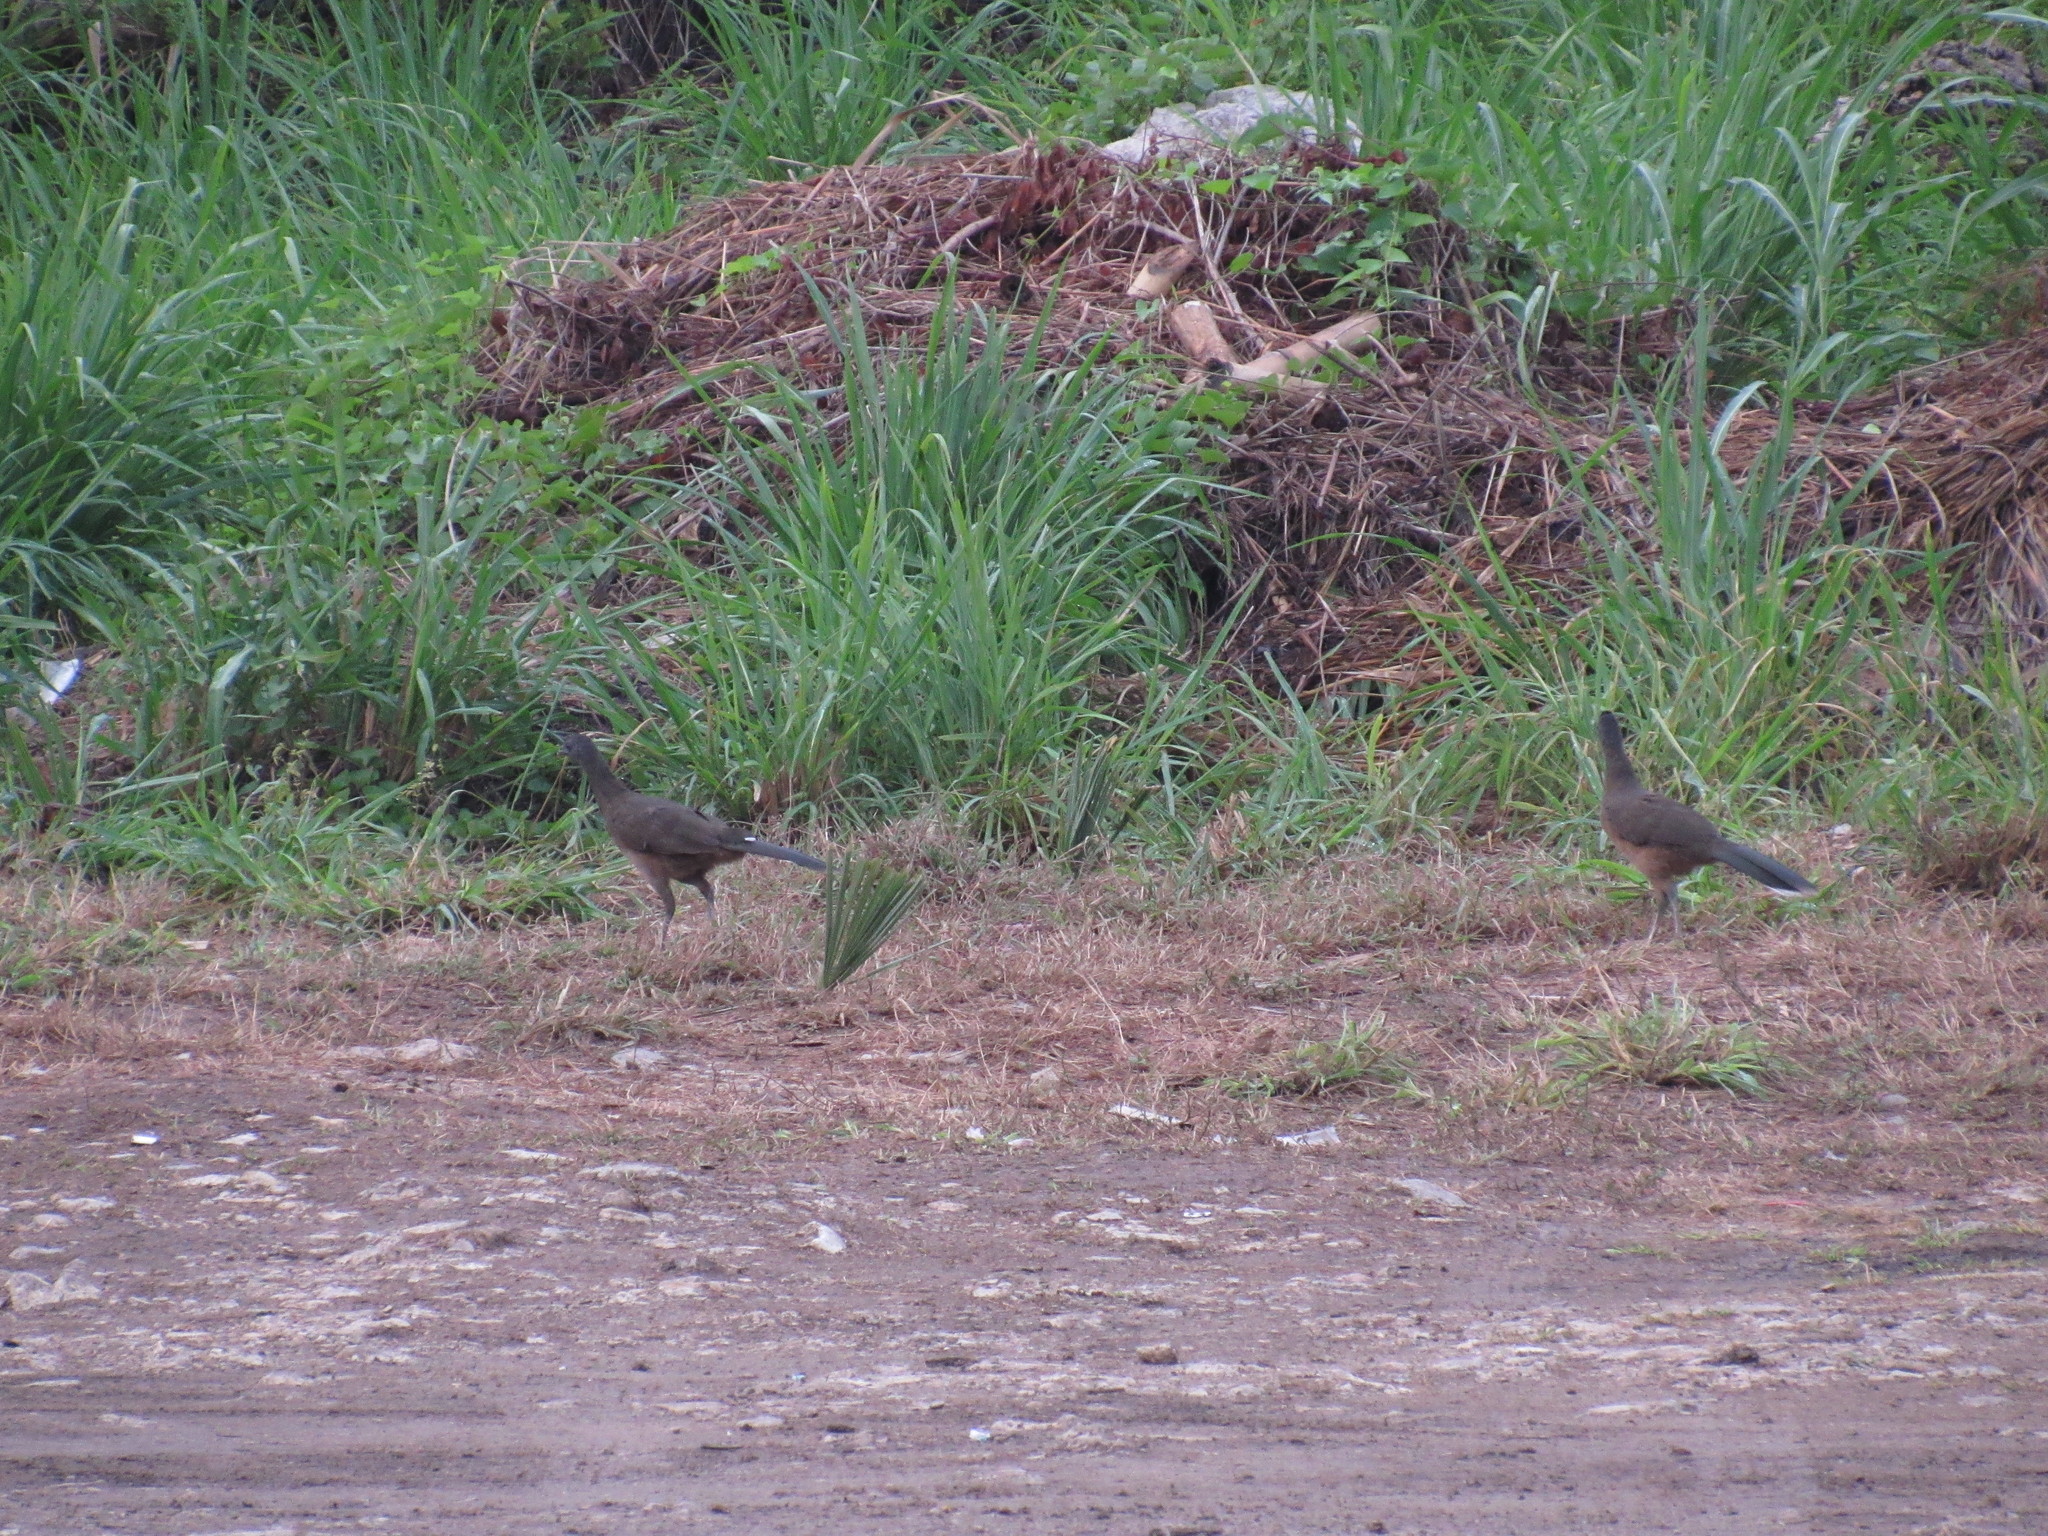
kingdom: Animalia
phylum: Chordata
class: Aves
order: Galliformes
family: Cracidae
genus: Ortalis
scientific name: Ortalis vetula
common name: Plain chachalaca
